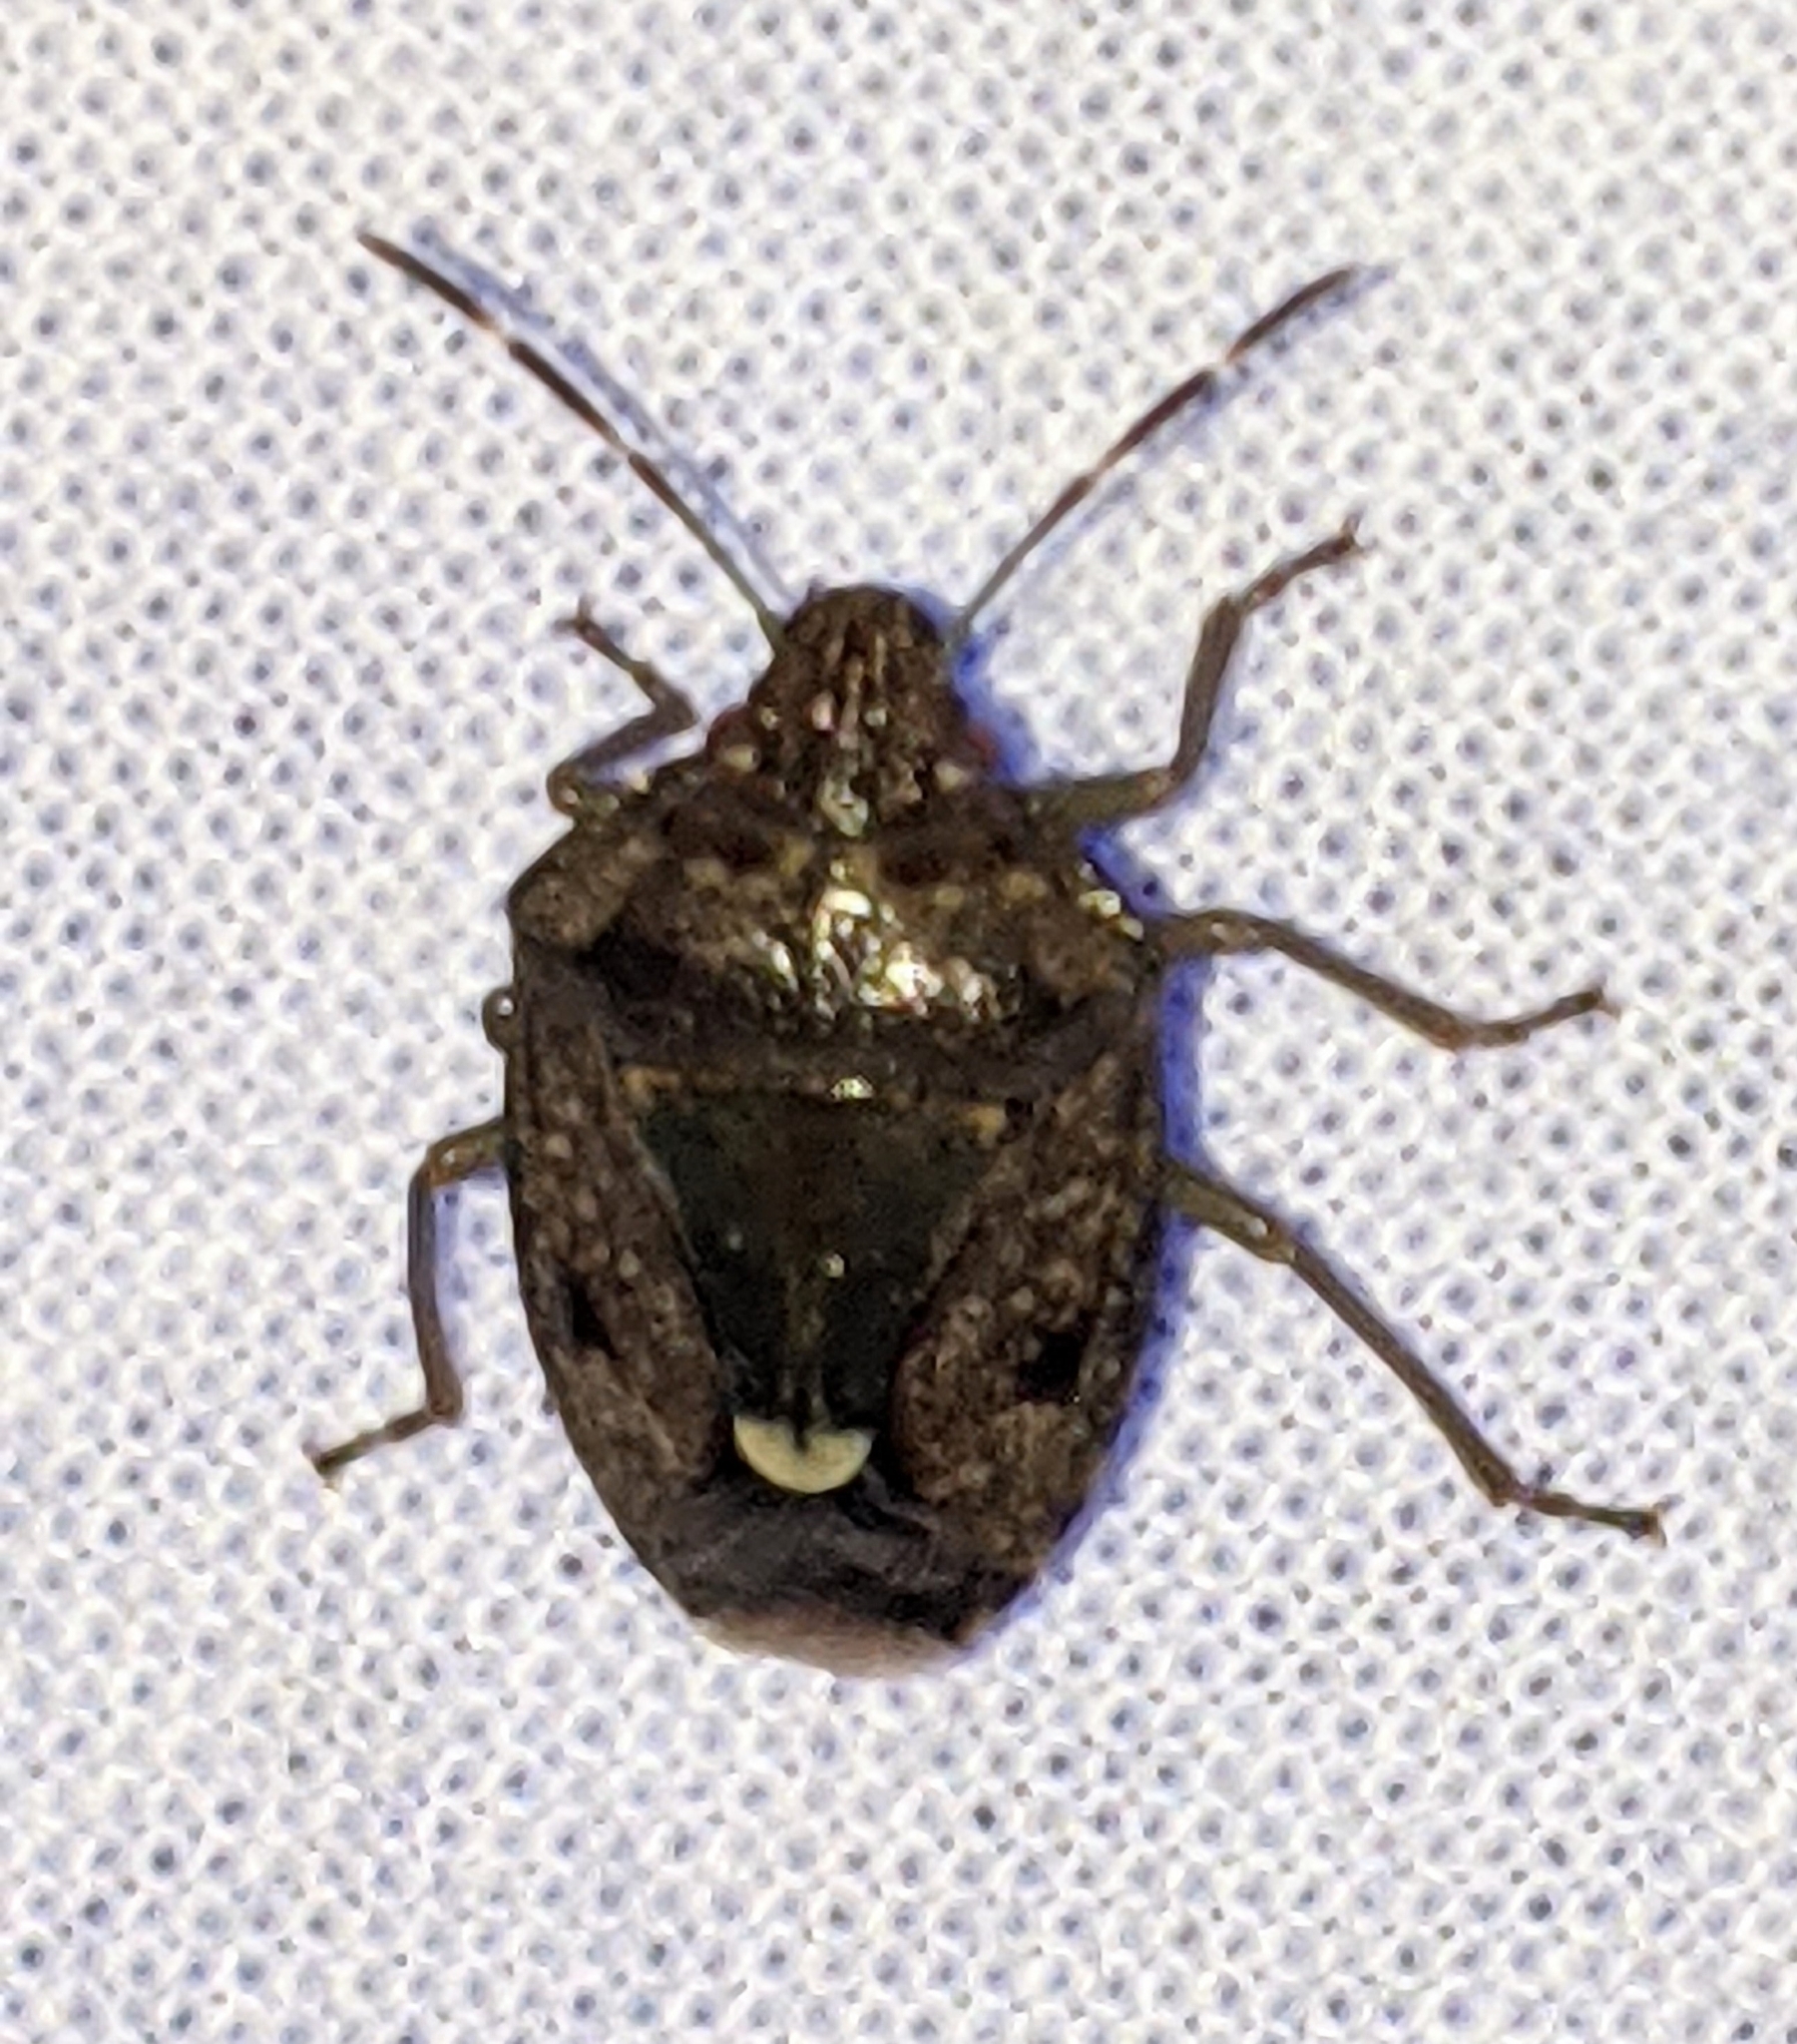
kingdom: Animalia
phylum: Arthropoda
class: Insecta
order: Hemiptera
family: Pentatomidae
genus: Banasa
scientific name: Banasa sordida
